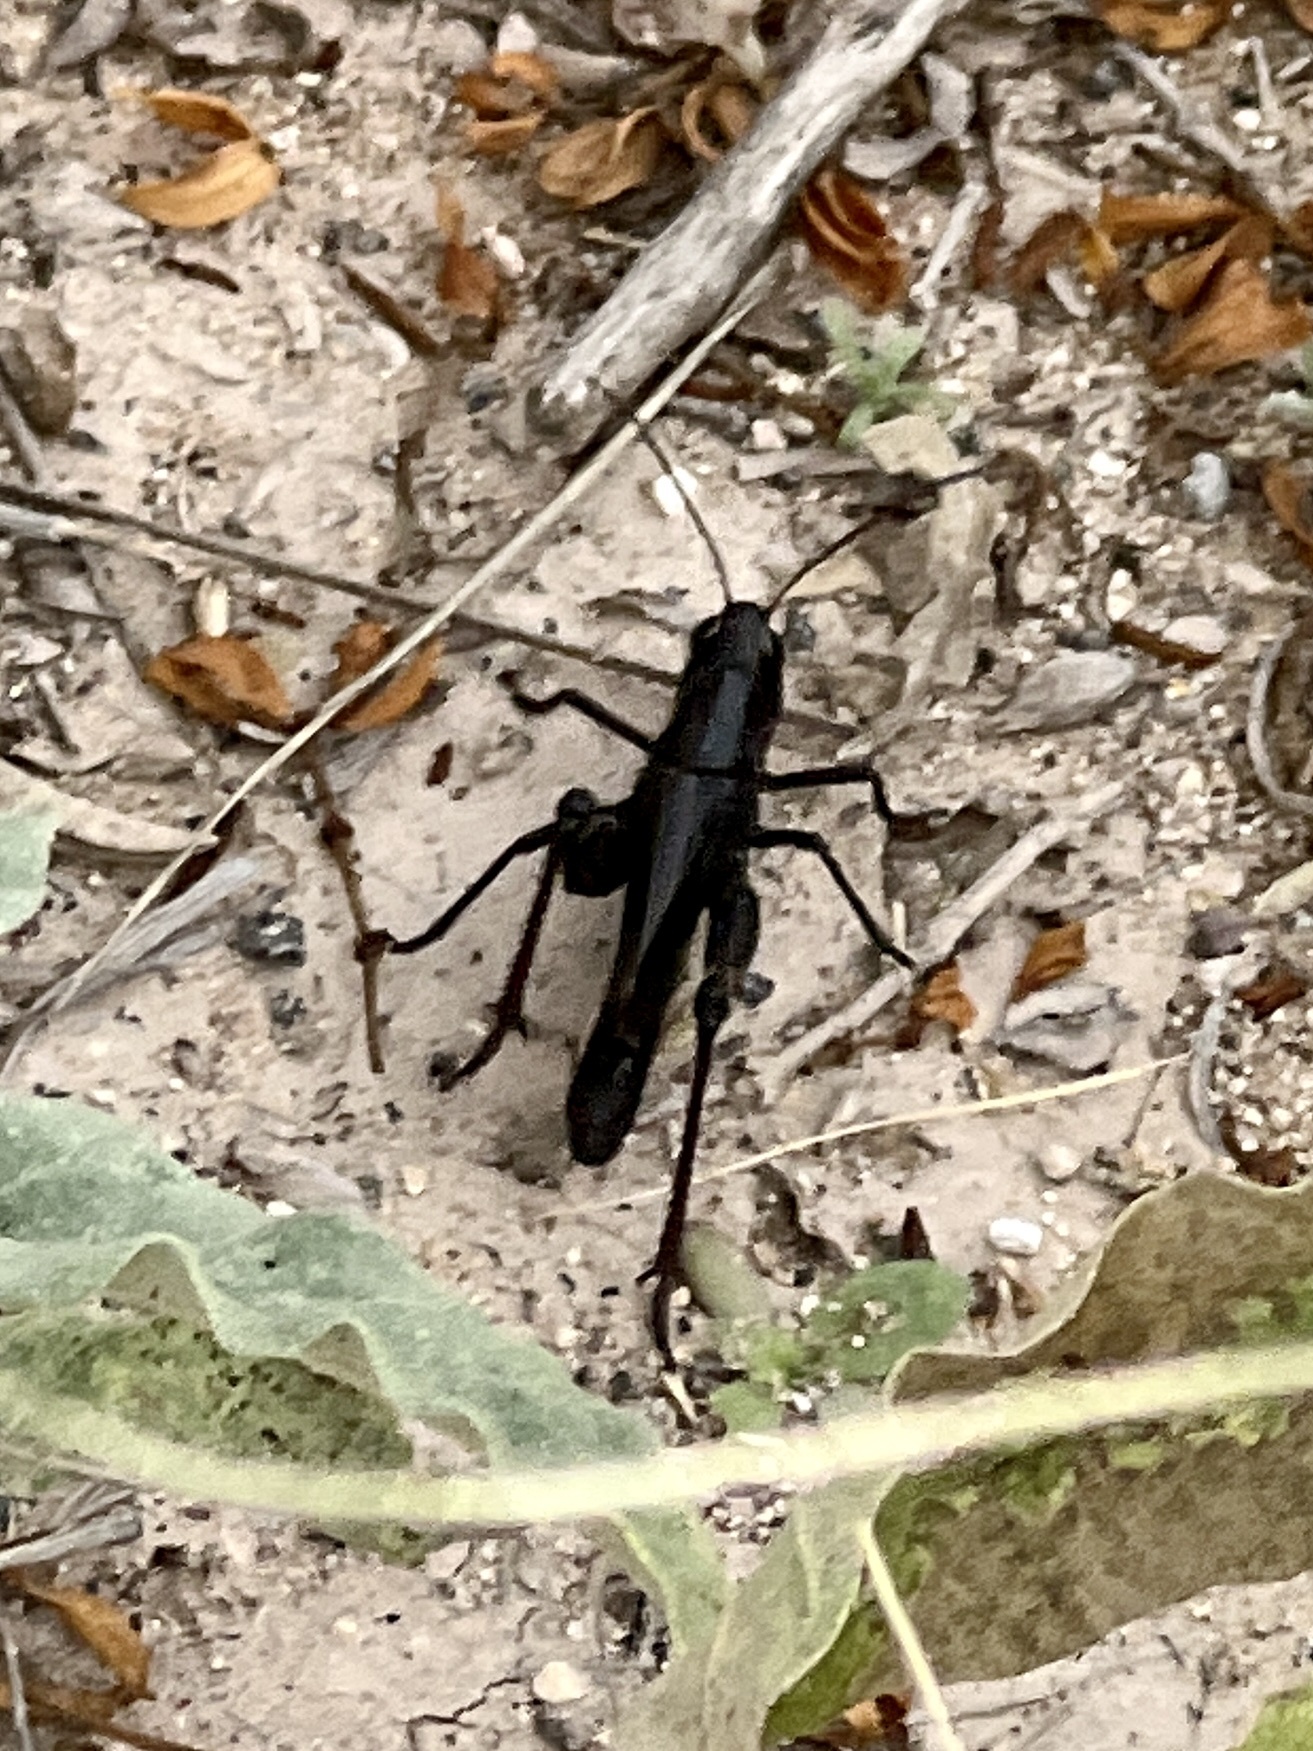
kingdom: Animalia
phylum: Arthropoda
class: Insecta
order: Orthoptera
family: Acrididae
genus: Boopedon
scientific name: Boopedon nubilum
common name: Ebony grasshopper
